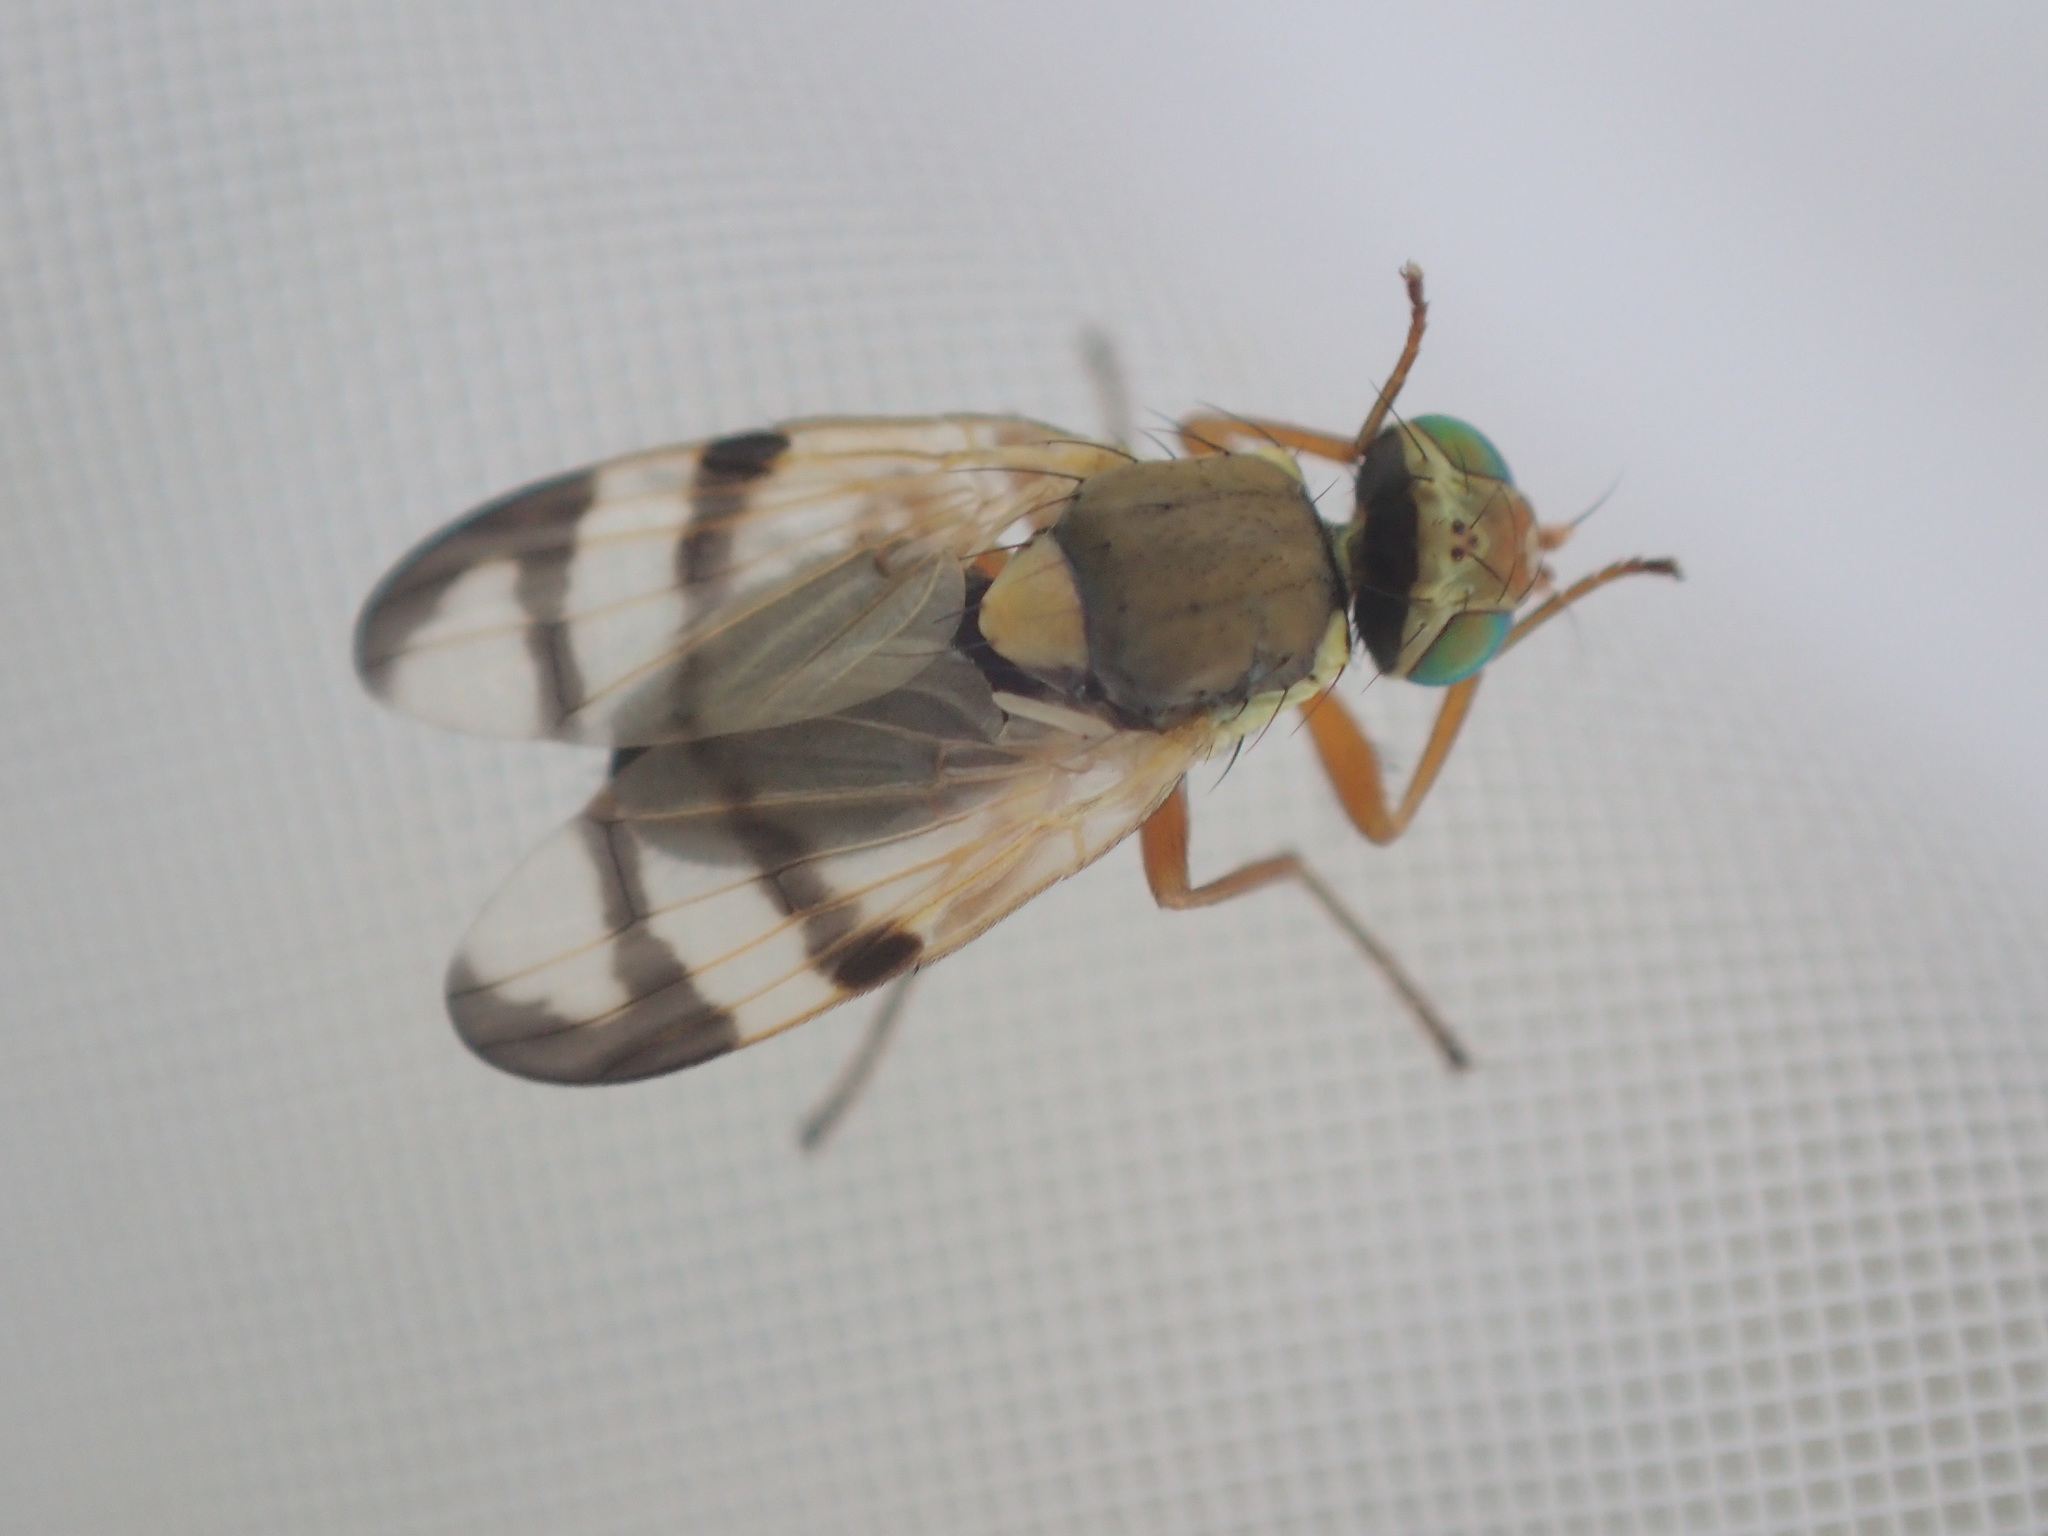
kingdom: Animalia
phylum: Arthropoda
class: Insecta
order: Diptera
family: Tephritidae
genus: Urophora
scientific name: Urophora stylata
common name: Fruit fly
